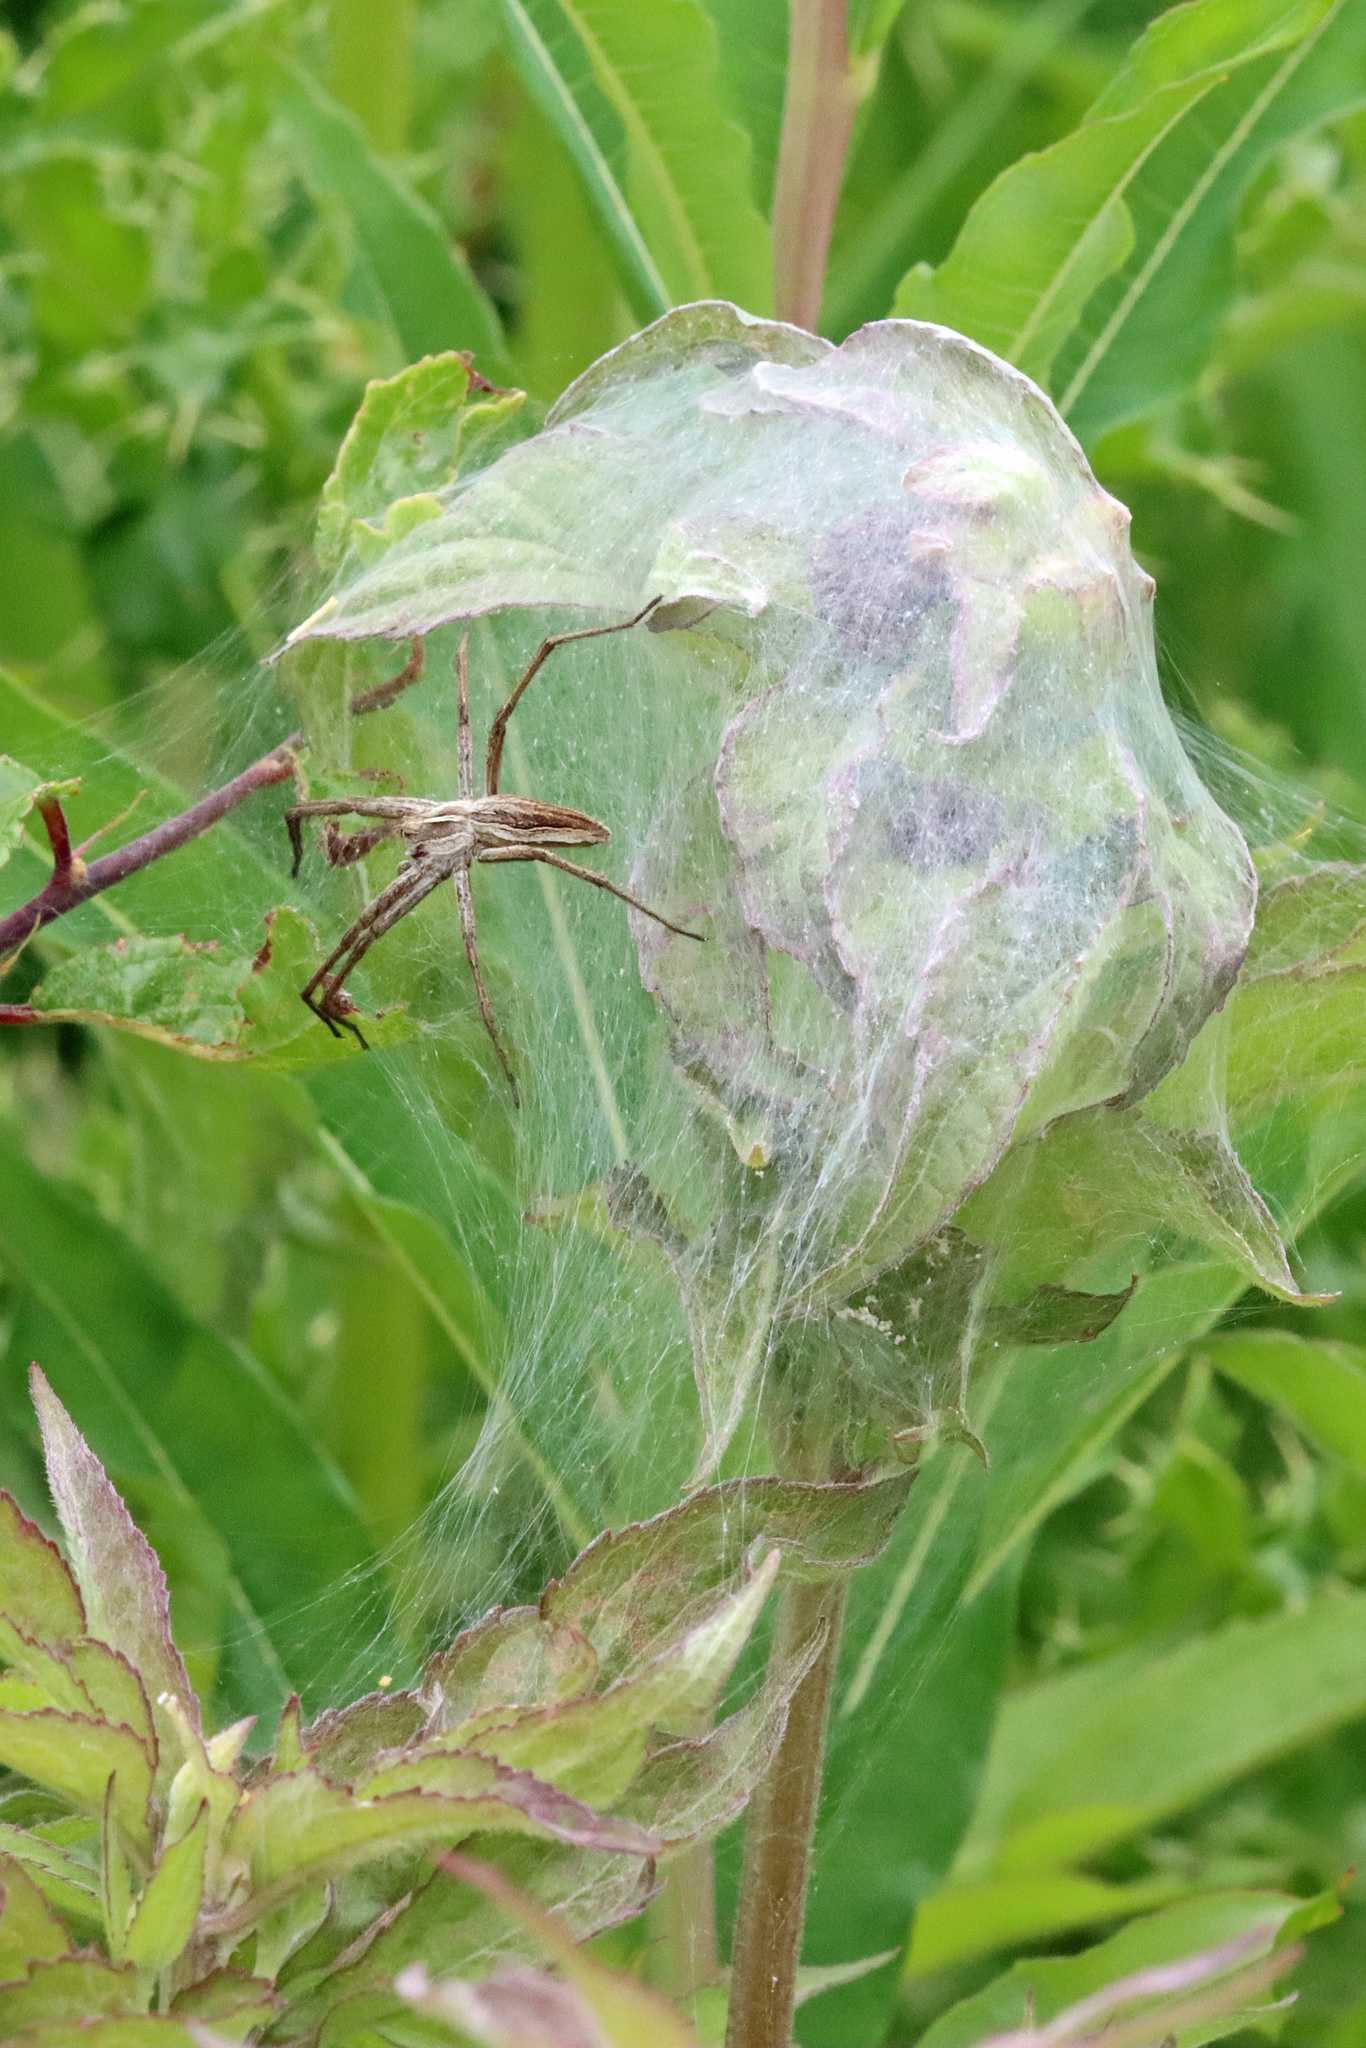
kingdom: Animalia
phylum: Arthropoda
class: Arachnida
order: Araneae
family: Pisauridae
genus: Pisaura
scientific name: Pisaura mirabilis
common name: Tent spider
